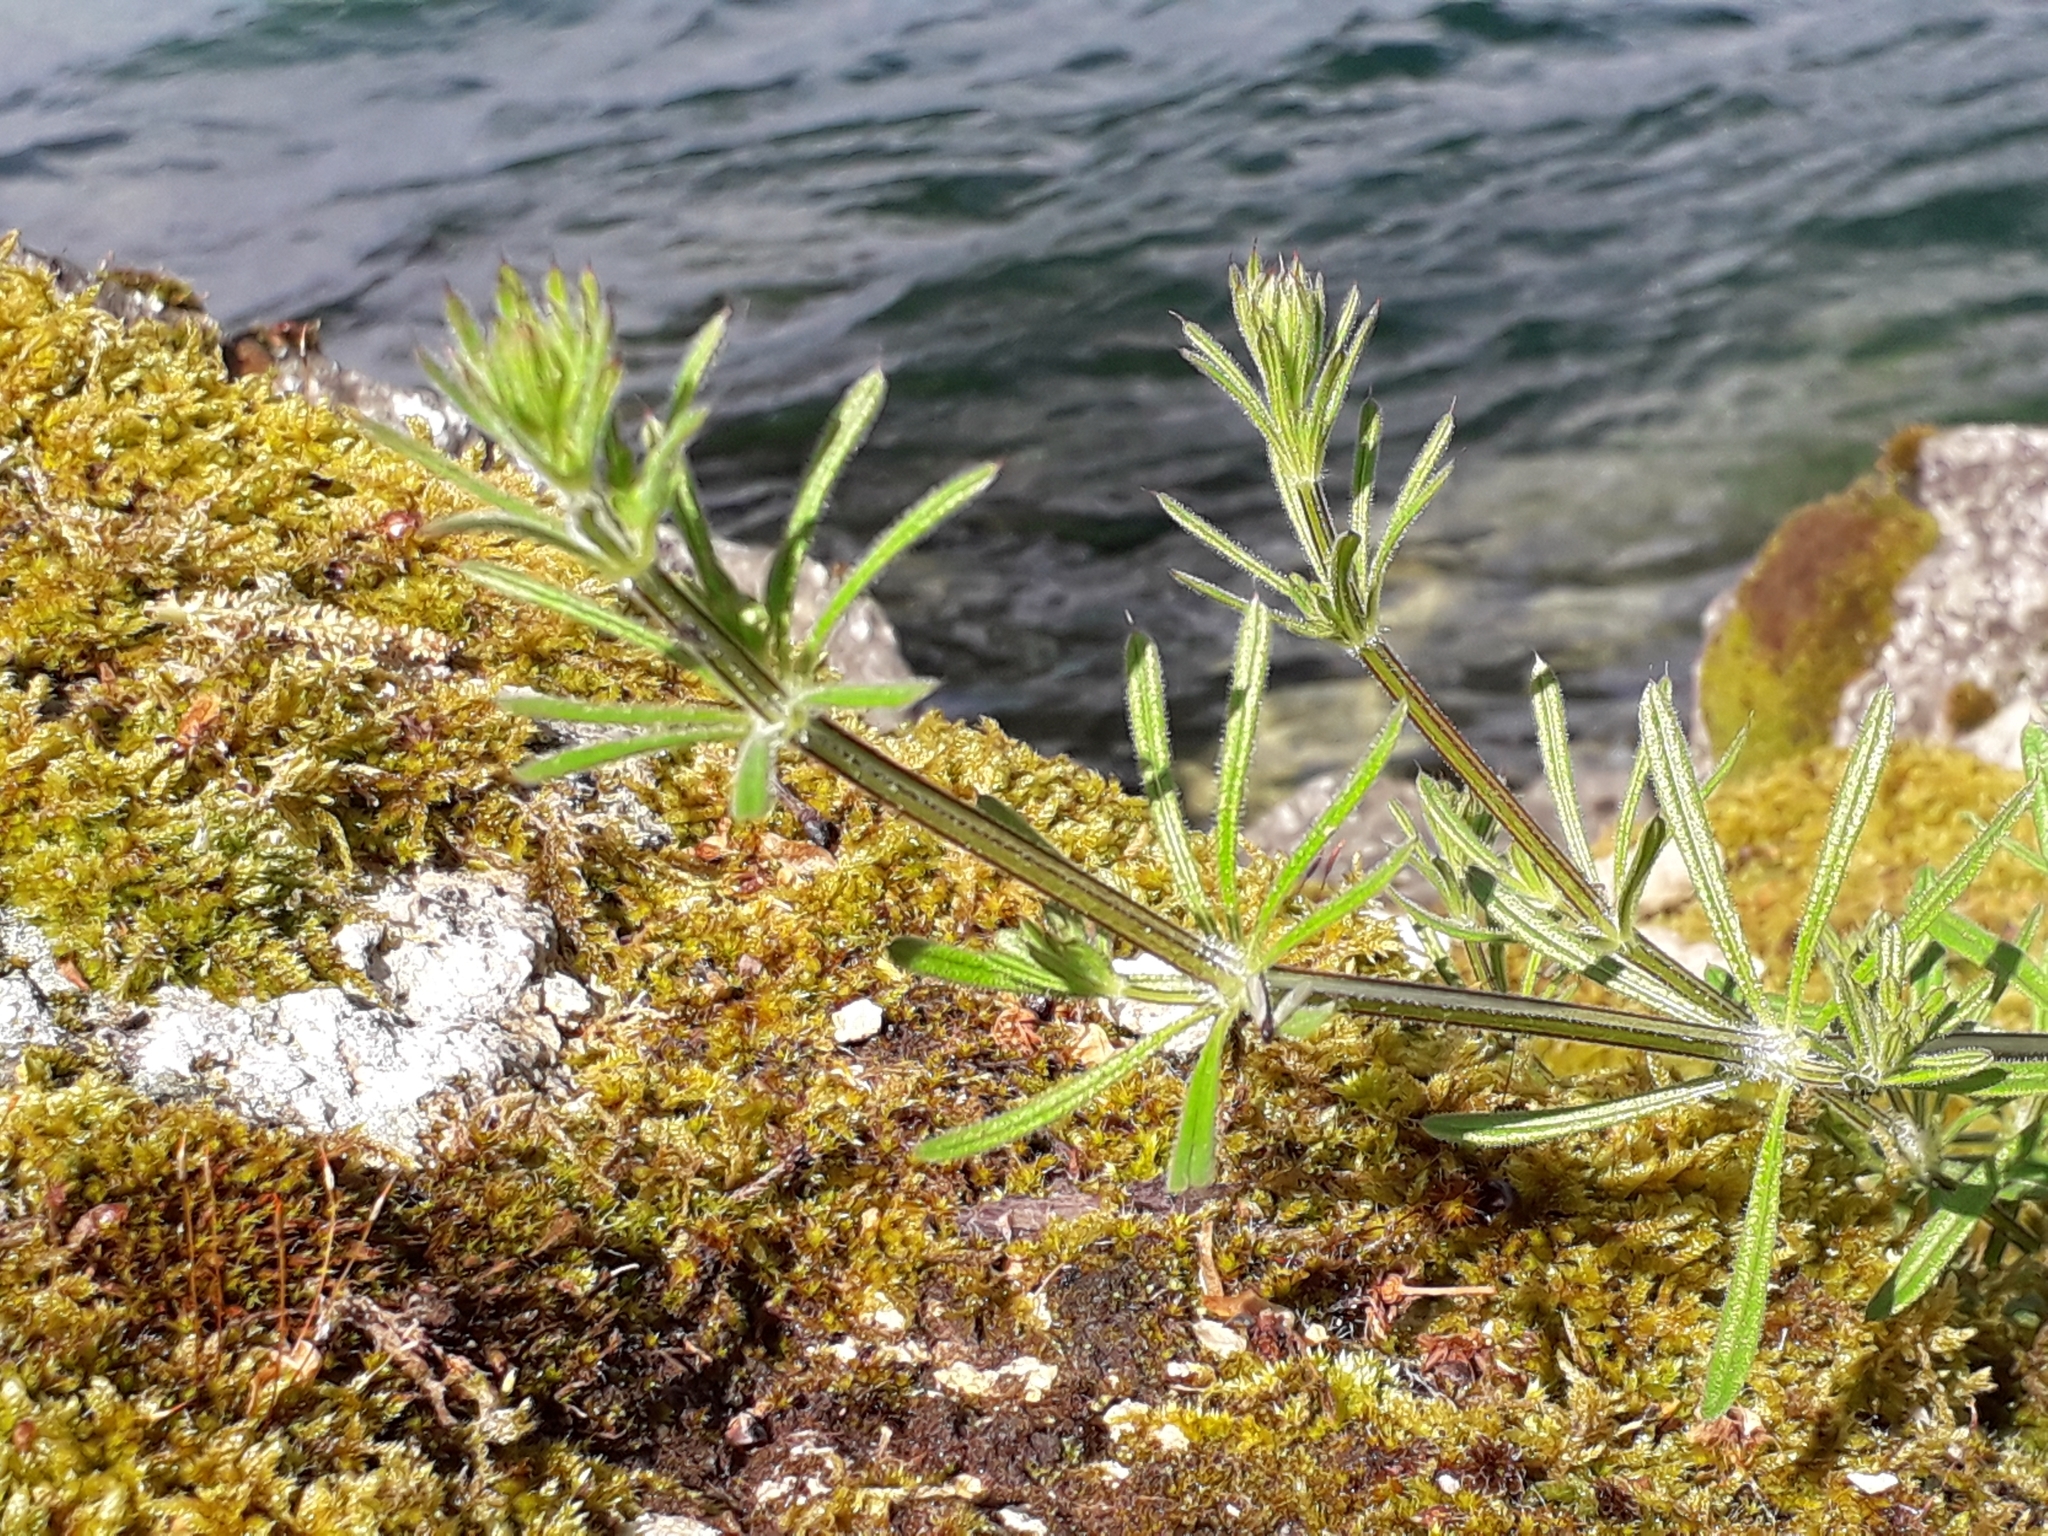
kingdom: Plantae
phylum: Tracheophyta
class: Magnoliopsida
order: Gentianales
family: Rubiaceae
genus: Galium
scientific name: Galium aparine
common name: Cleavers
